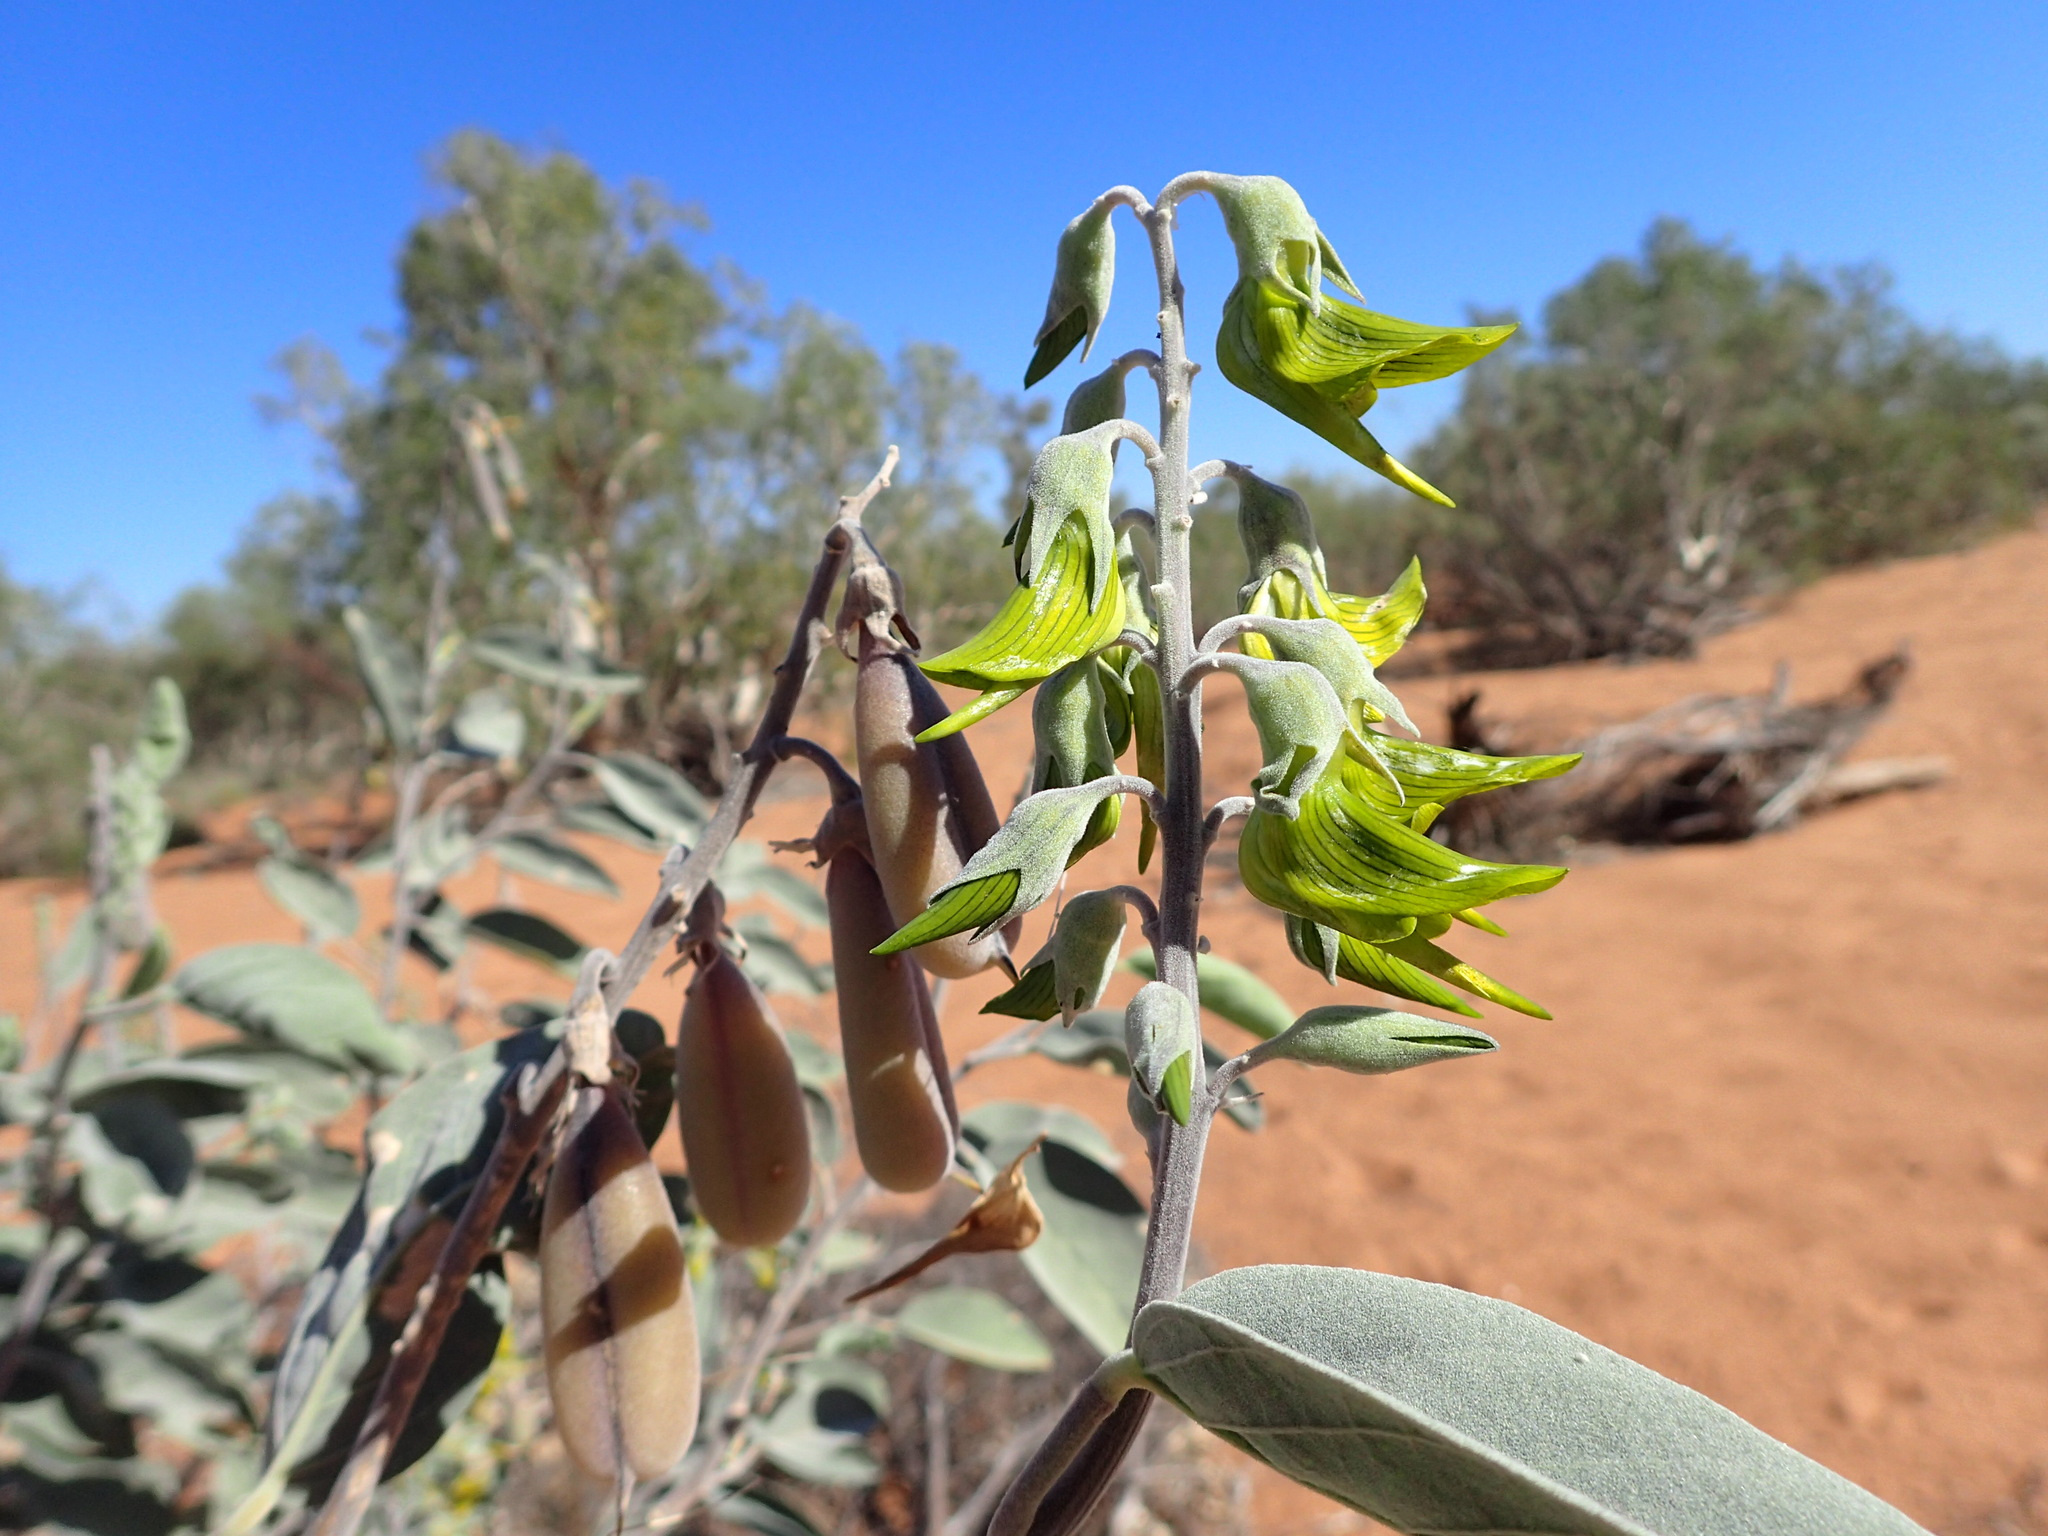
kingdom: Plantae
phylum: Tracheophyta
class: Magnoliopsida
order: Fabales
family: Fabaceae
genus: Crotalaria
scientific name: Crotalaria cunninghamii
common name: Birdflower rattlepod
